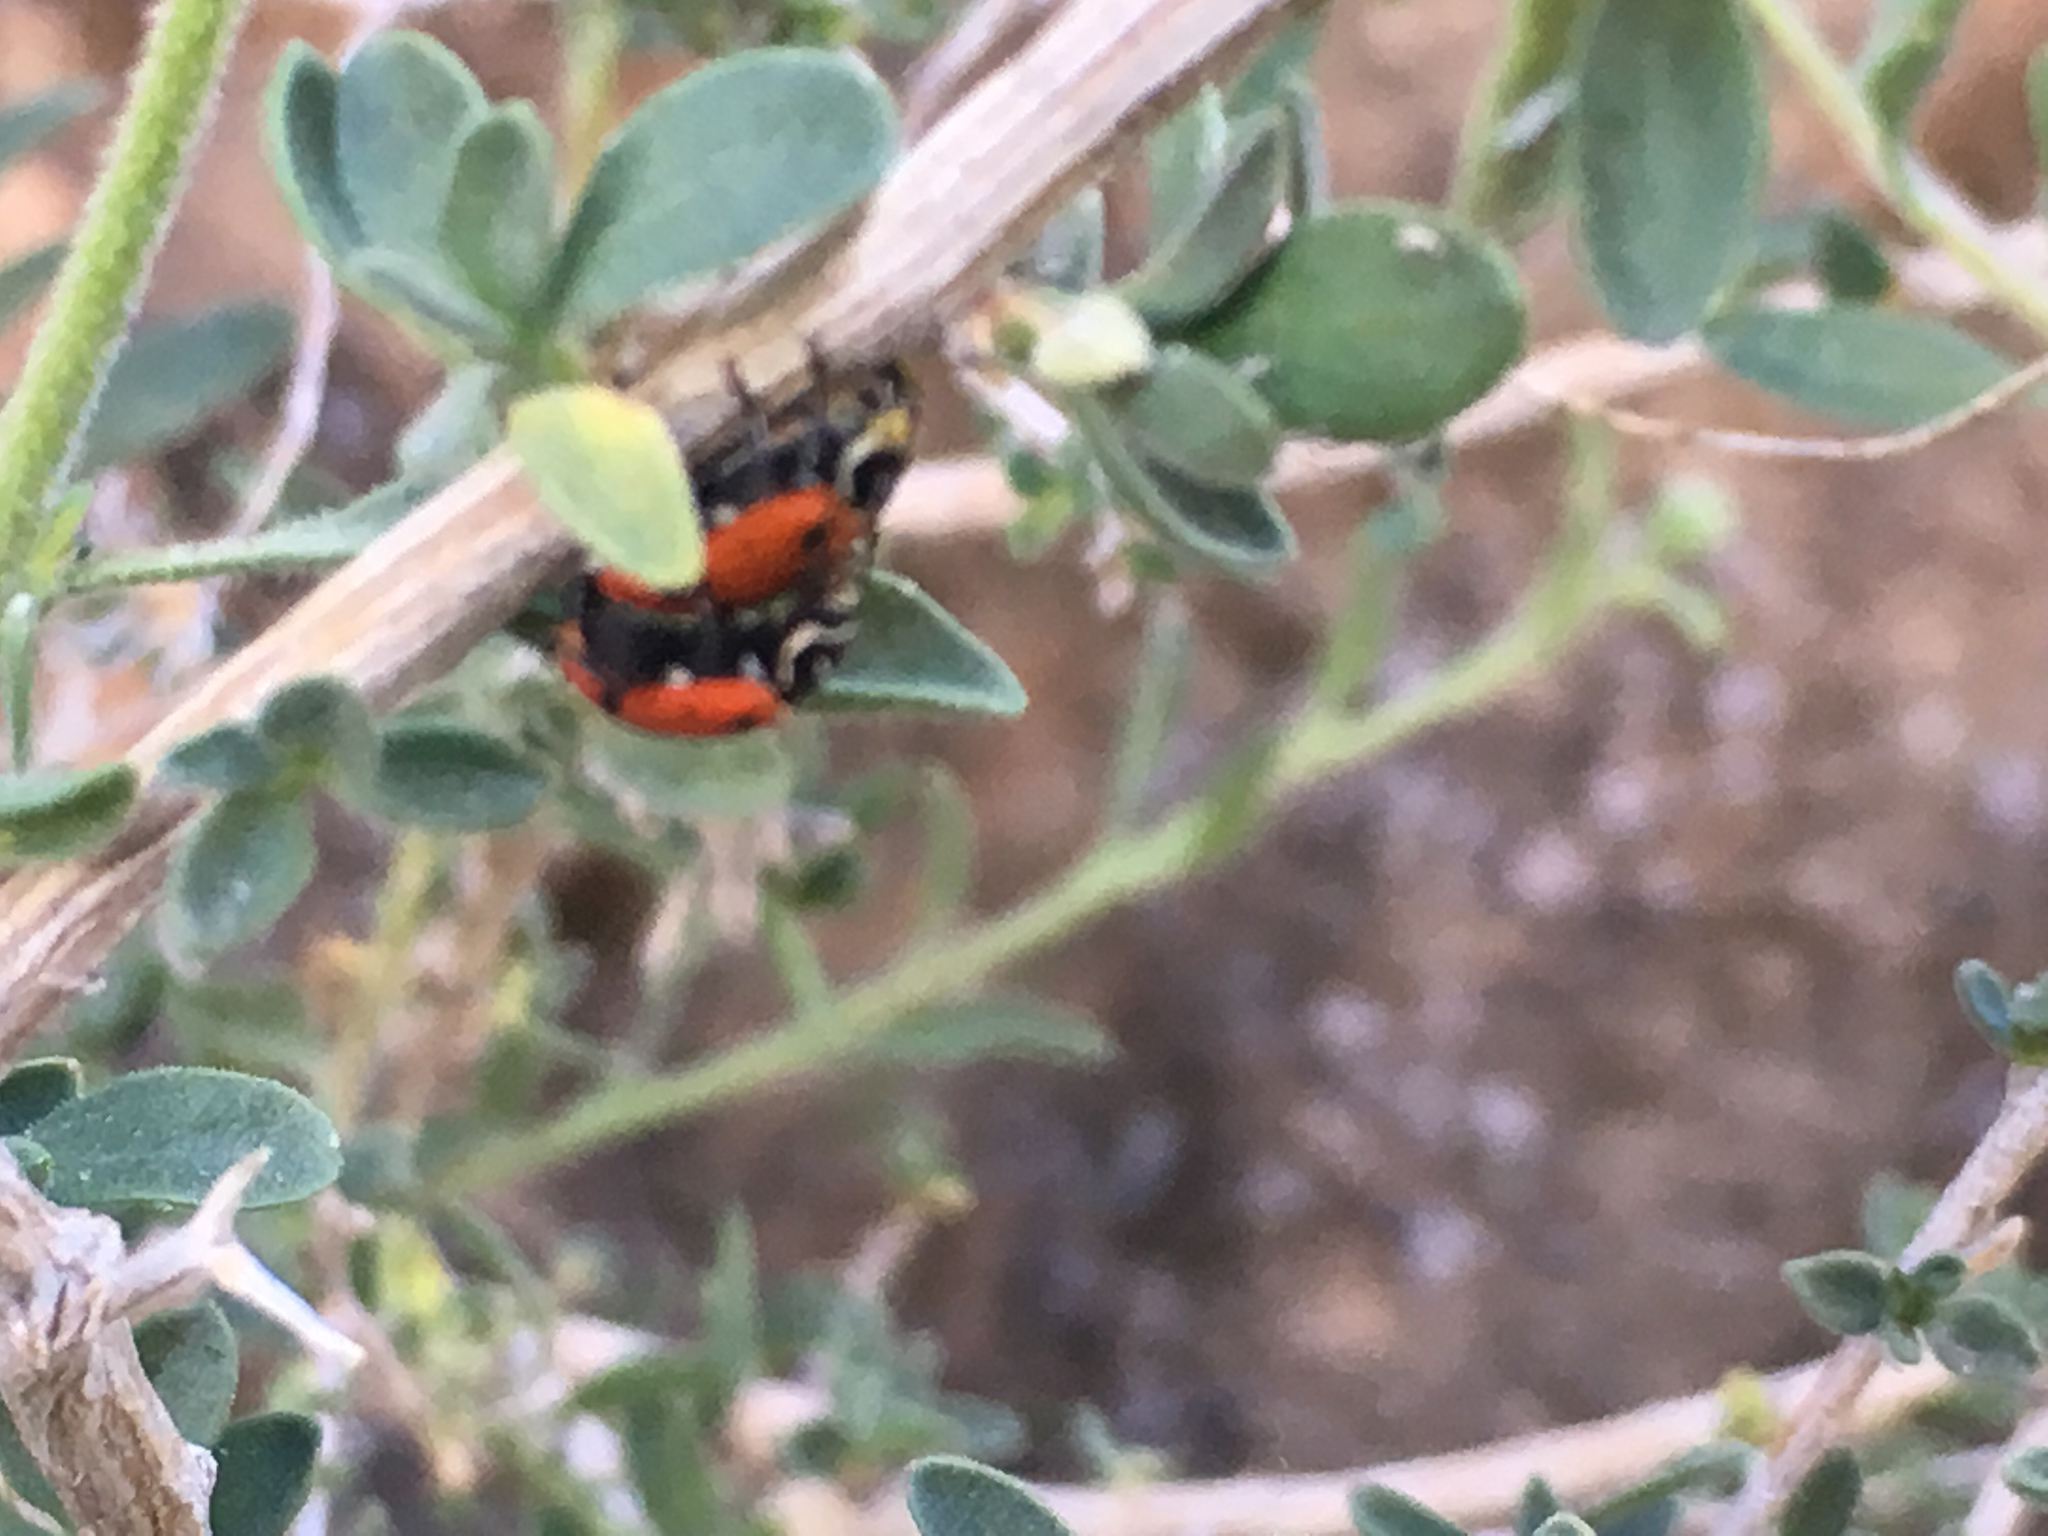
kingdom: Animalia
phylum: Arthropoda
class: Insecta
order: Coleoptera
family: Coccinellidae
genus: Coccinella
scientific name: Coccinella septempunctata
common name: Sevenspotted lady beetle
